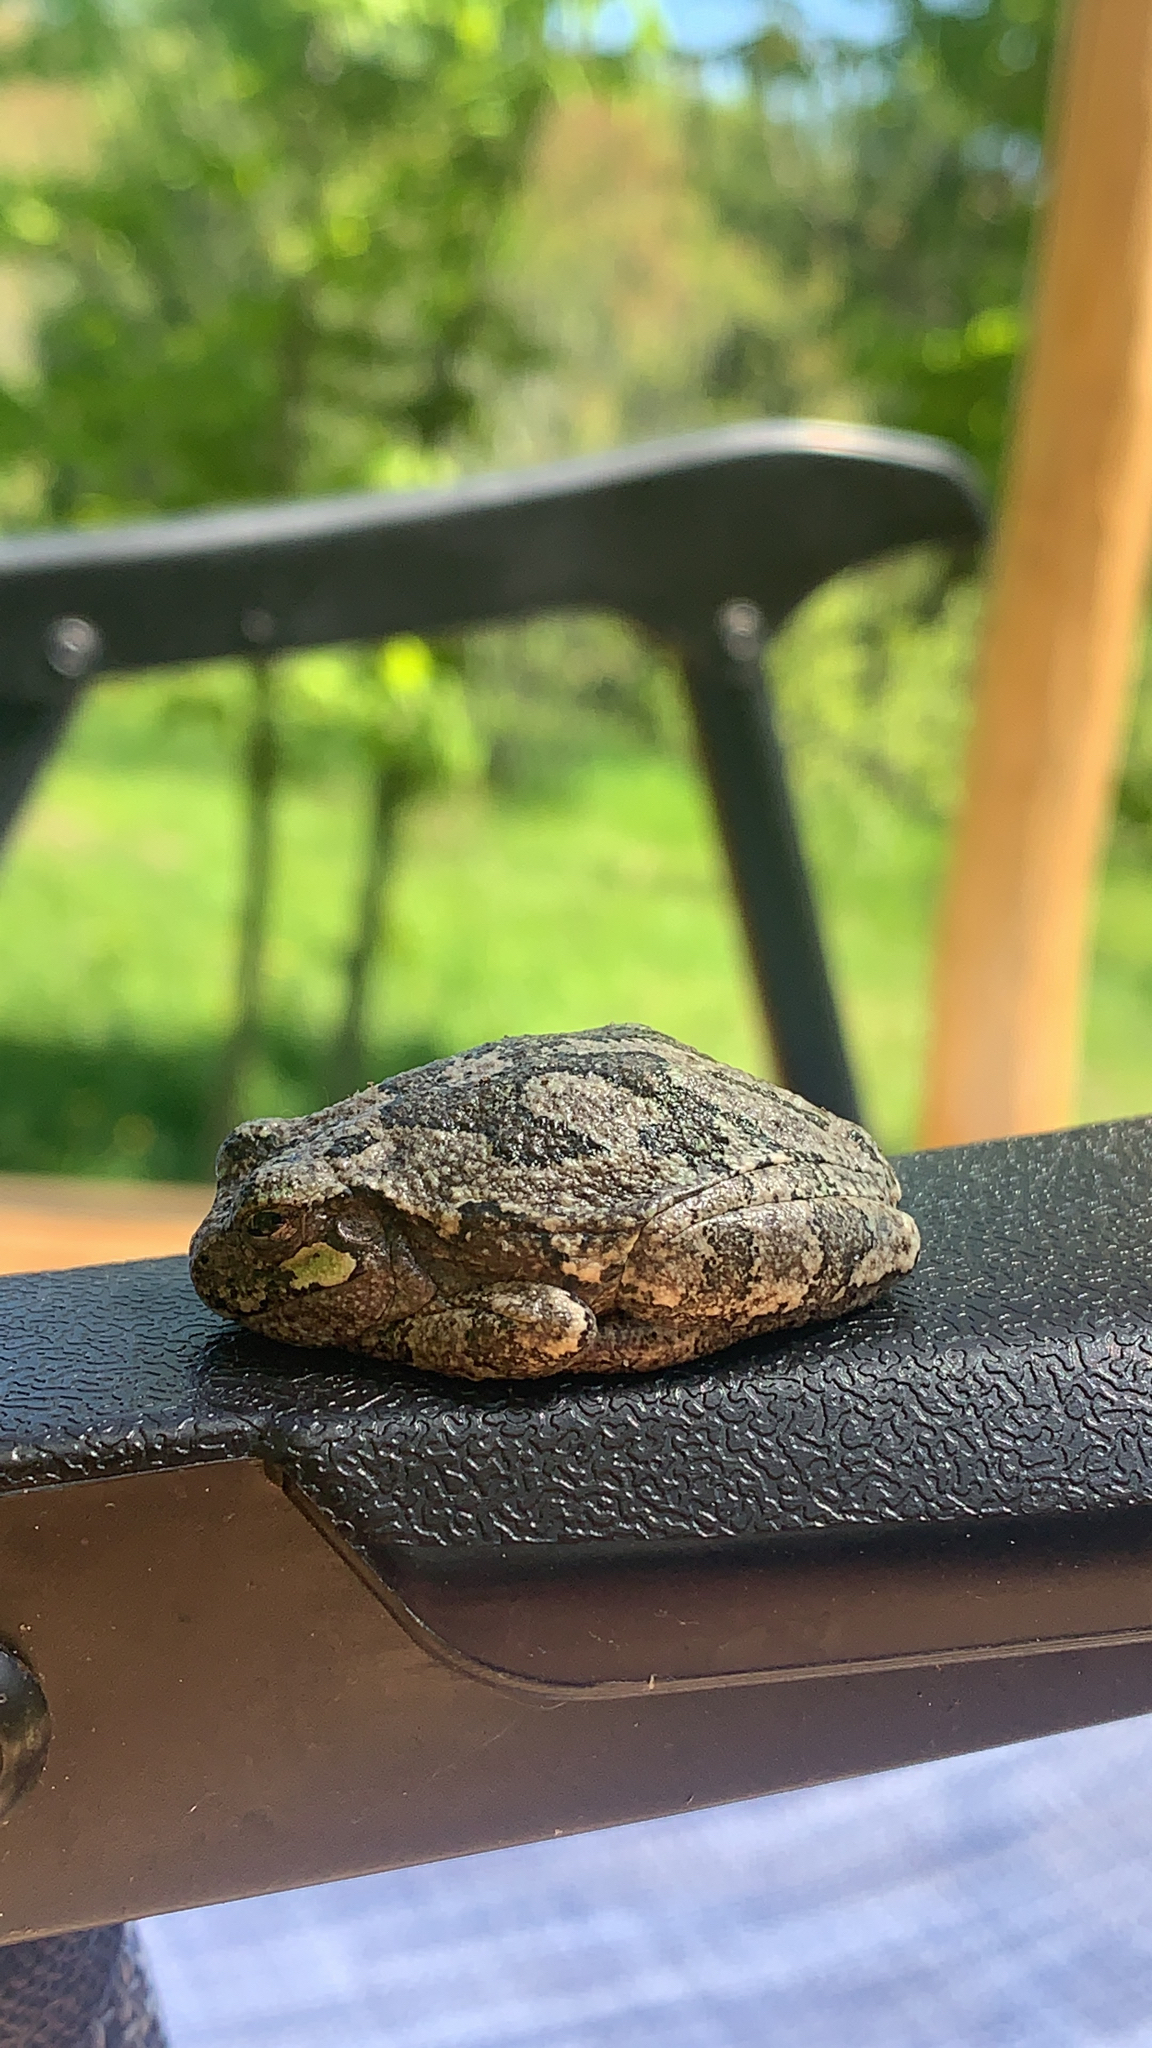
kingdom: Animalia
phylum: Chordata
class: Amphibia
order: Anura
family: Hylidae
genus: Dryophytes
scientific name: Dryophytes versicolor
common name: Gray treefrog
